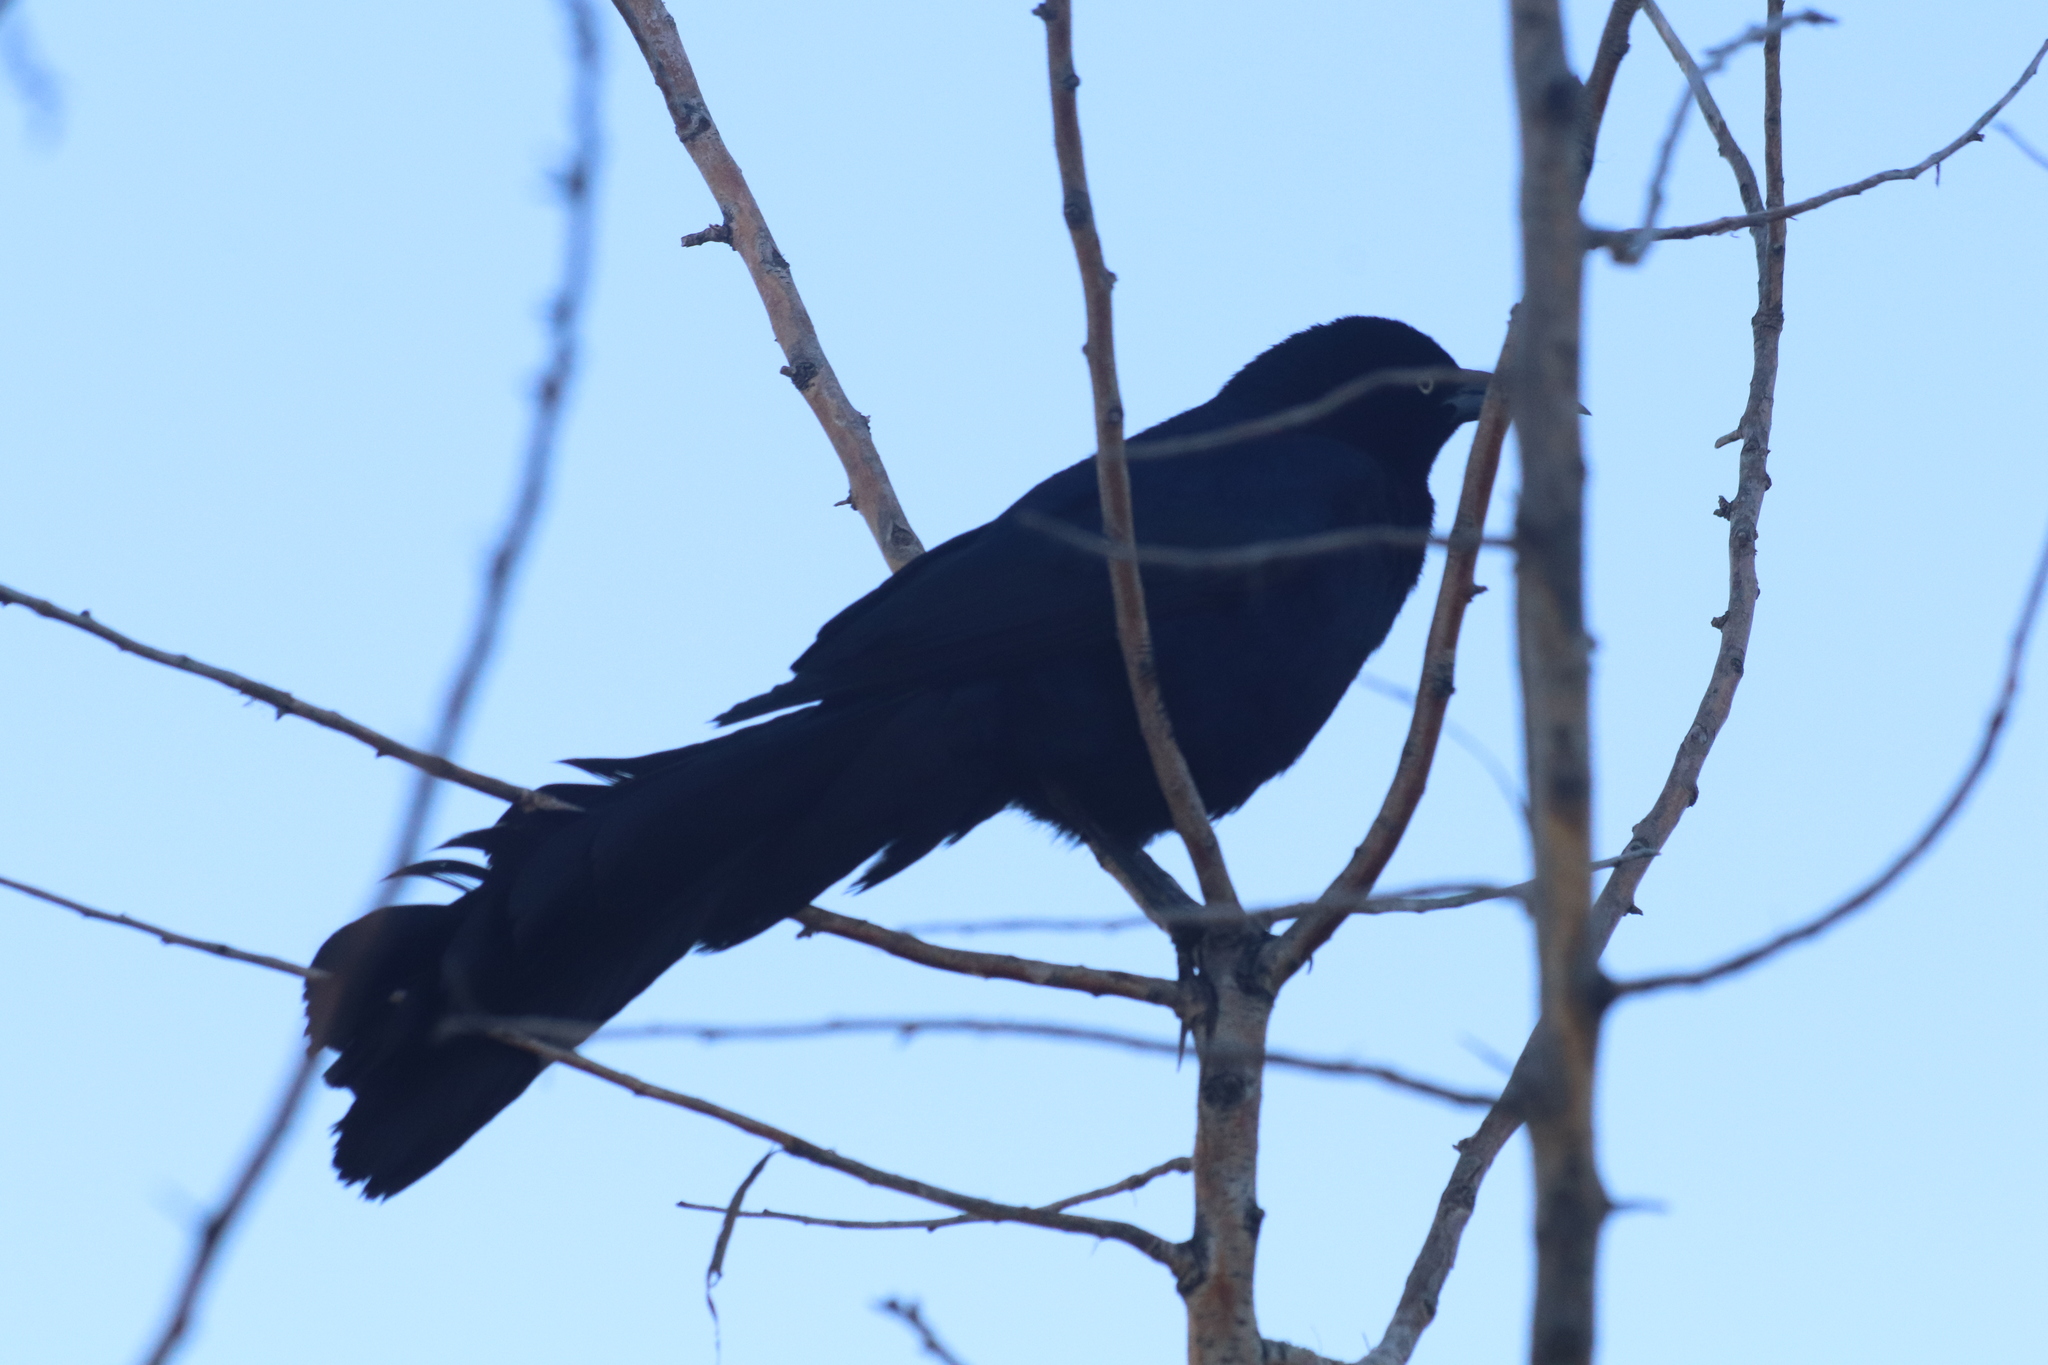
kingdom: Animalia
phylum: Chordata
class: Aves
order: Passeriformes
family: Icteridae
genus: Quiscalus
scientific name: Quiscalus mexicanus
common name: Great-tailed grackle
